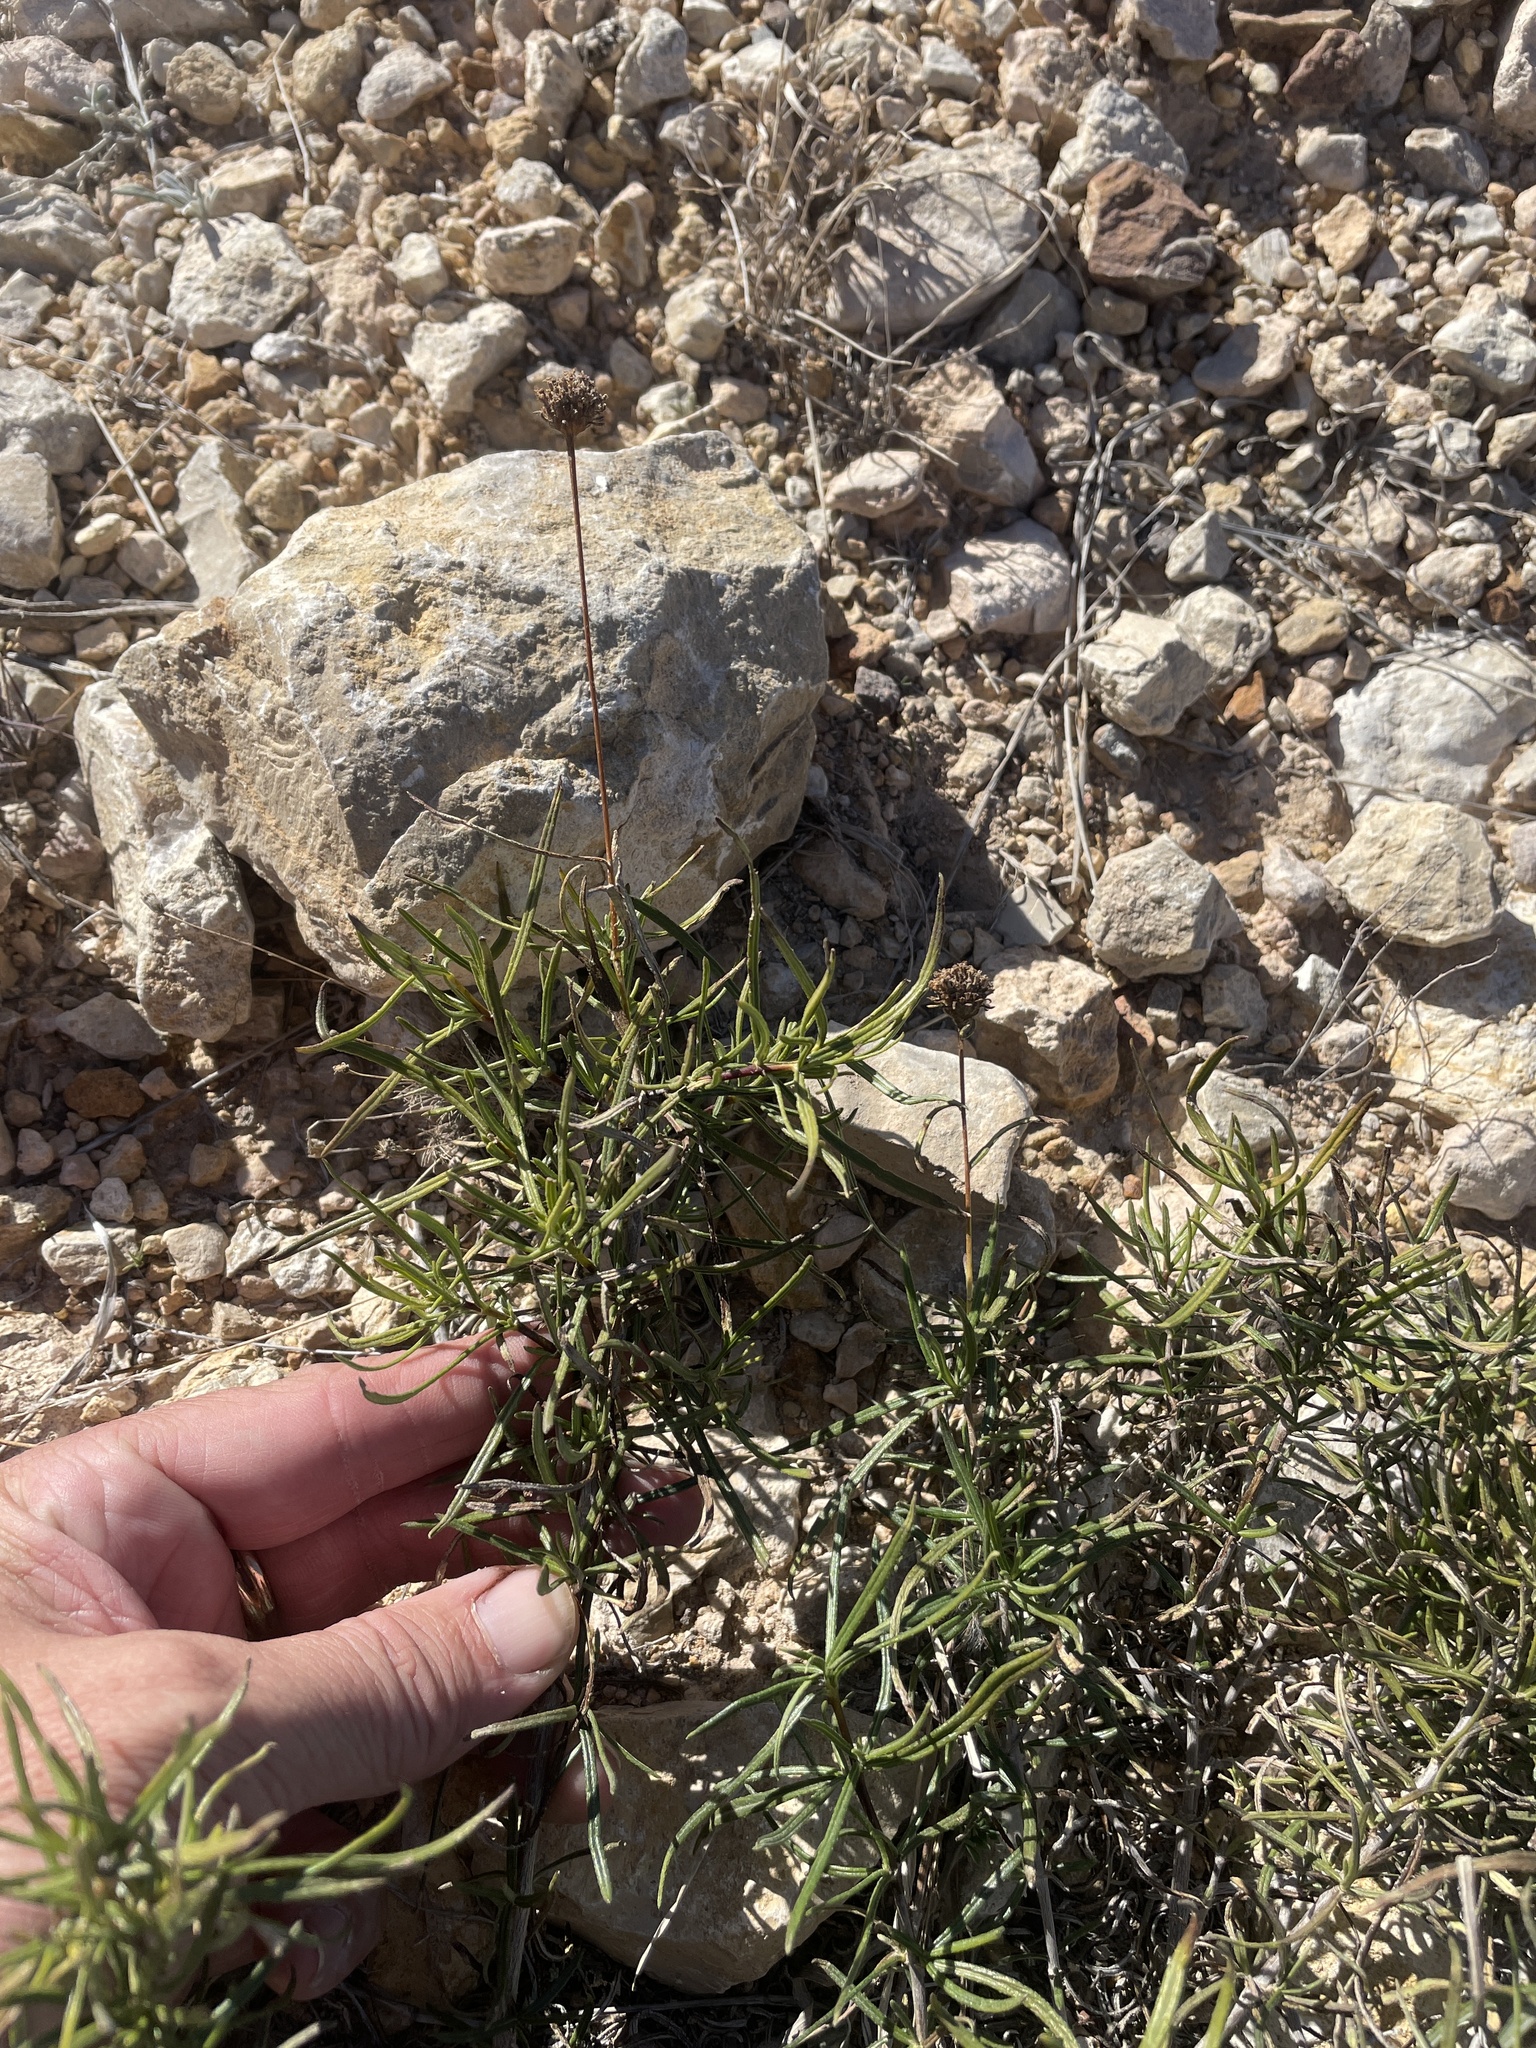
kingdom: Plantae
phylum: Tracheophyta
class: Magnoliopsida
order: Asterales
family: Asteraceae
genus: Sidneya
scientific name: Sidneya tenuifolia
